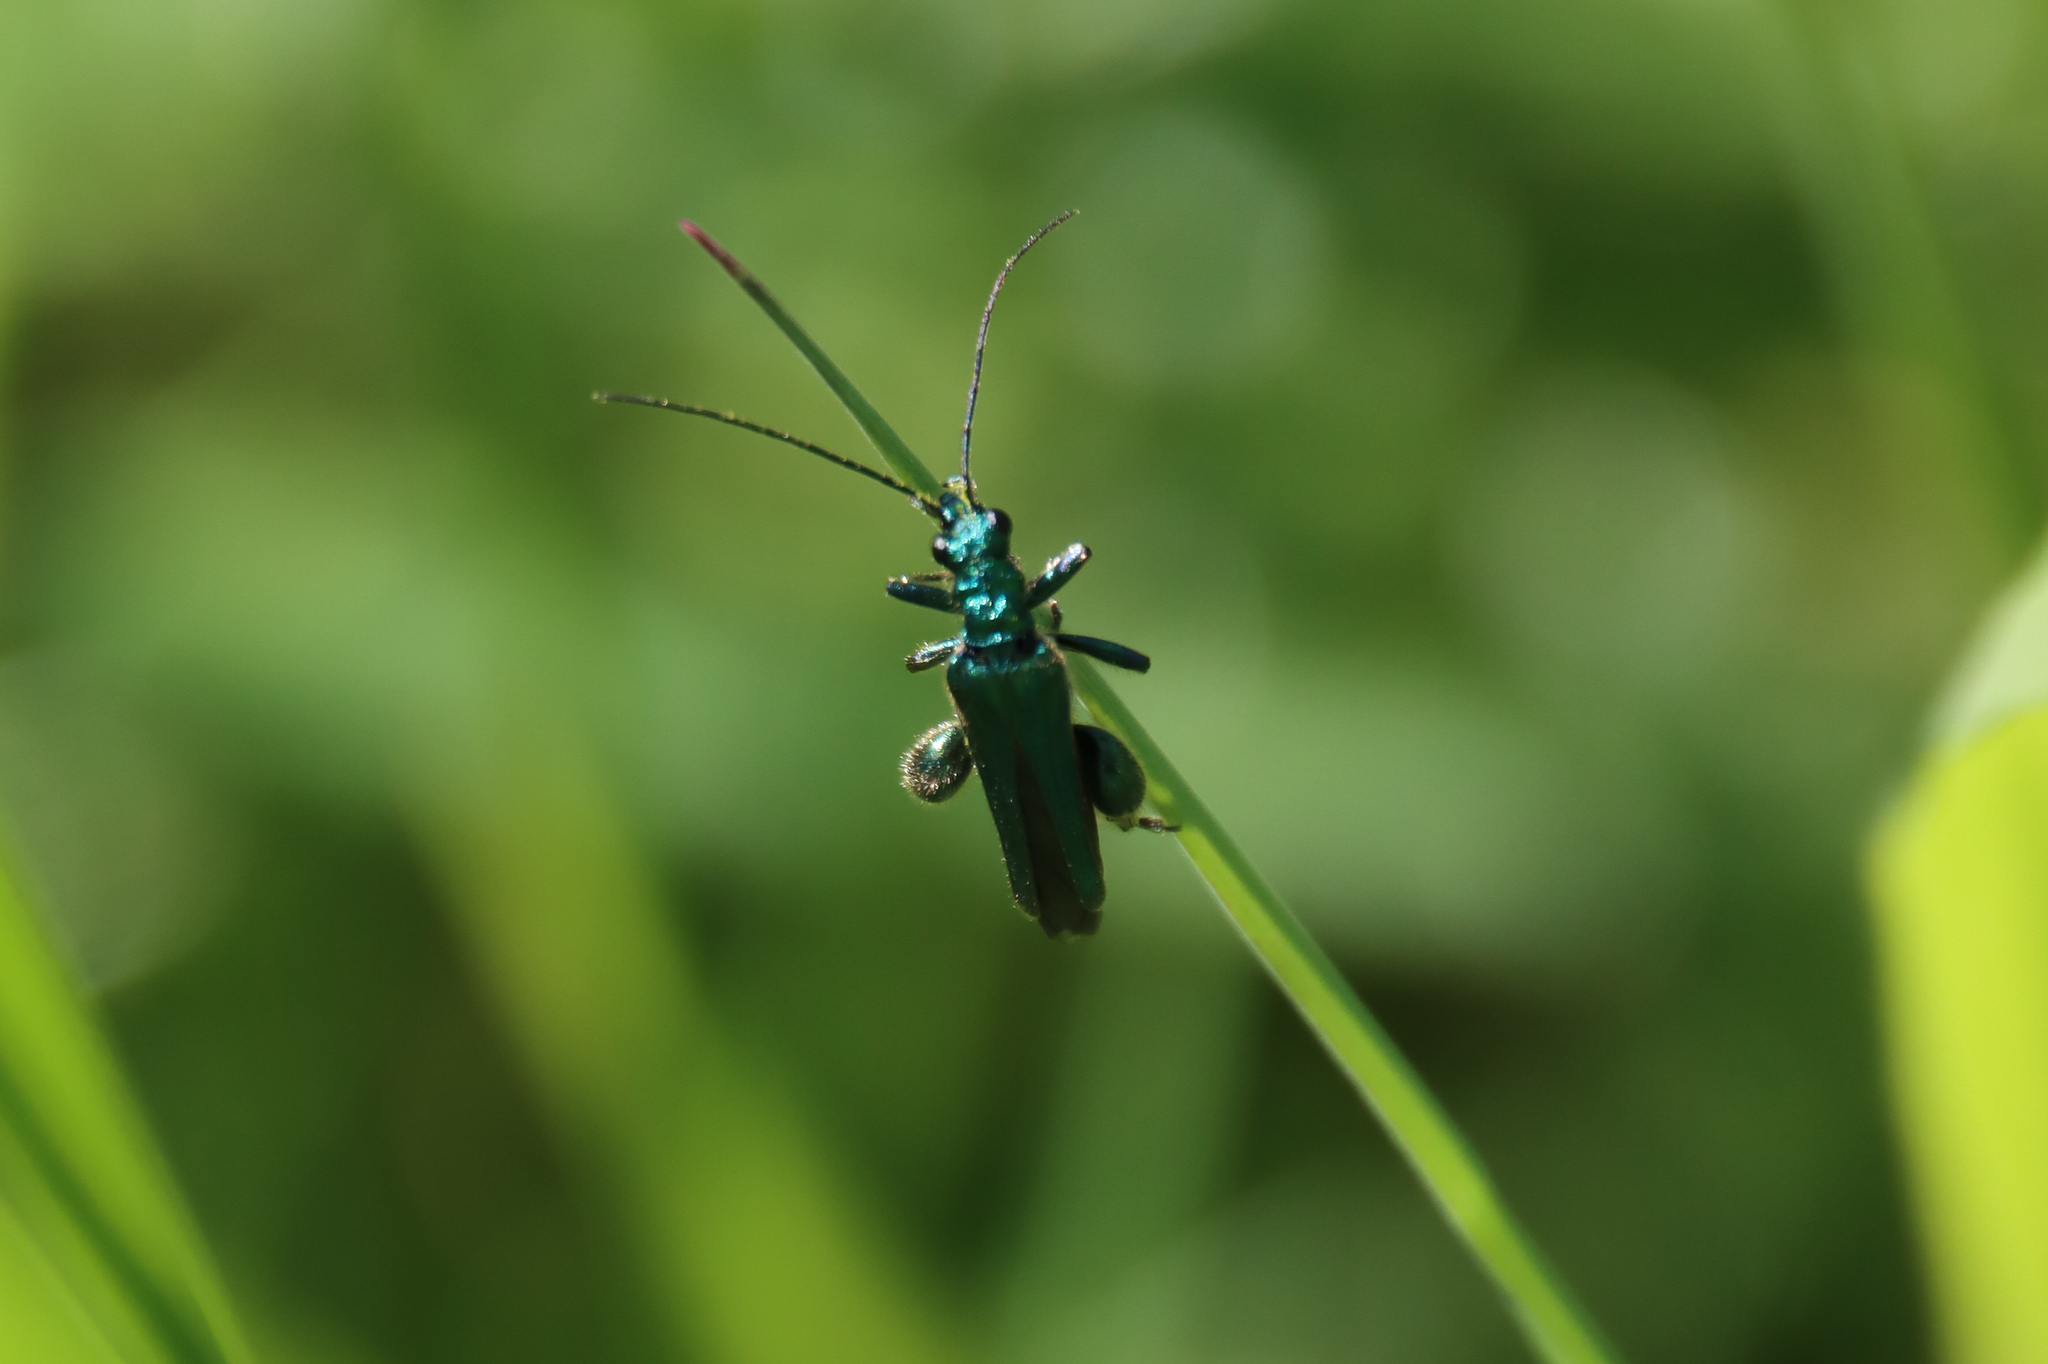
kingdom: Animalia
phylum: Arthropoda
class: Insecta
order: Coleoptera
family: Oedemeridae
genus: Oedemera
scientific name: Oedemera nobilis
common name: Swollen-thighed beetle
